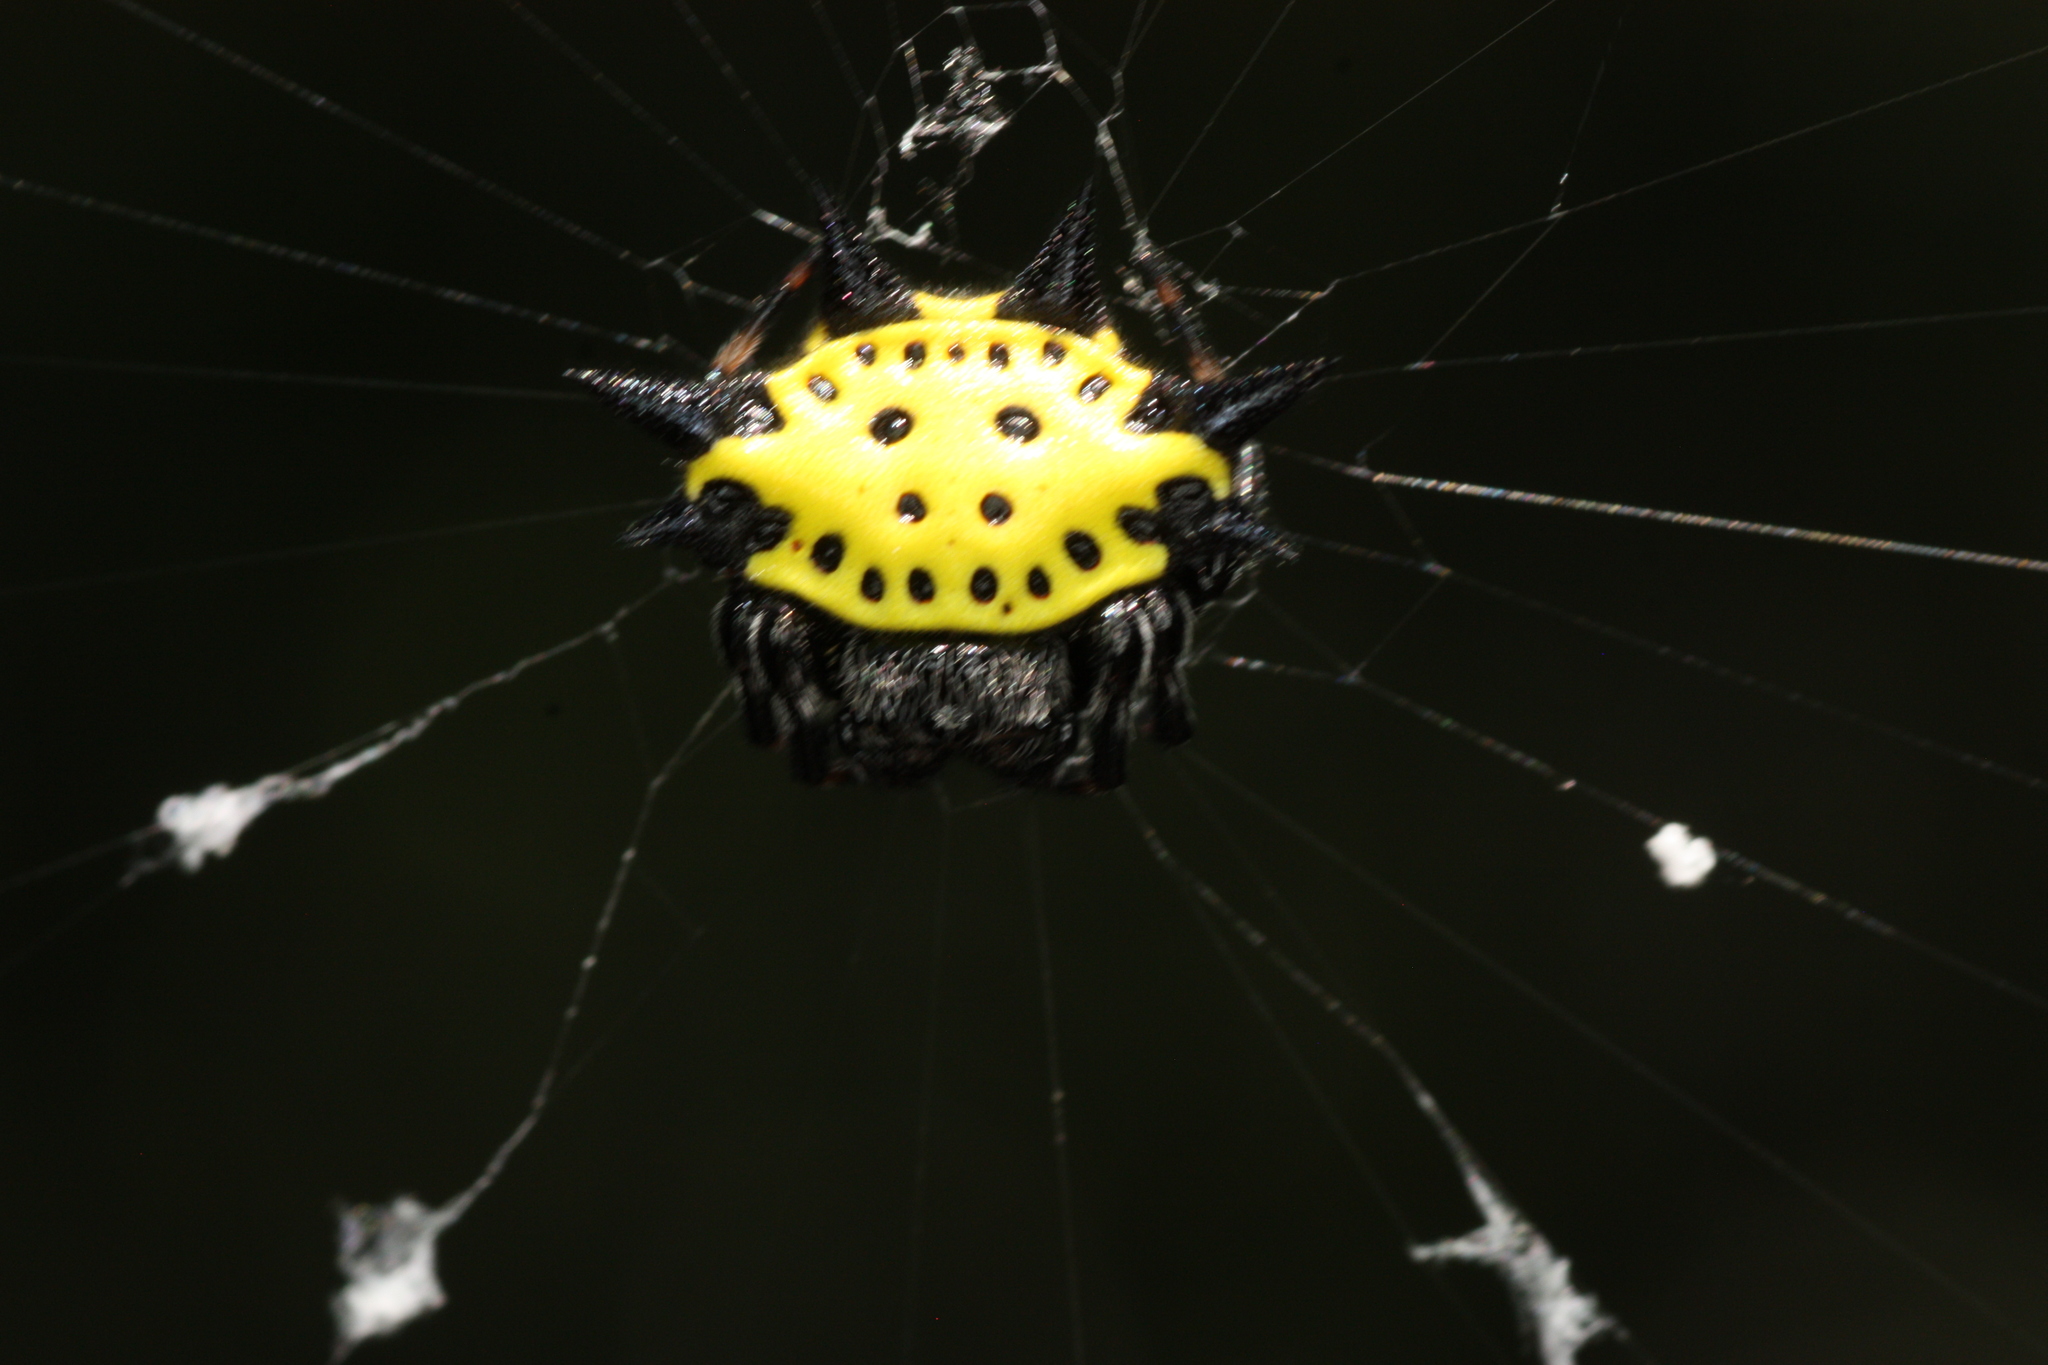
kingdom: Animalia
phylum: Arthropoda
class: Arachnida
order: Araneae
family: Araneidae
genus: Gasteracantha
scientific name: Gasteracantha cancriformis
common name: Orb weavers
